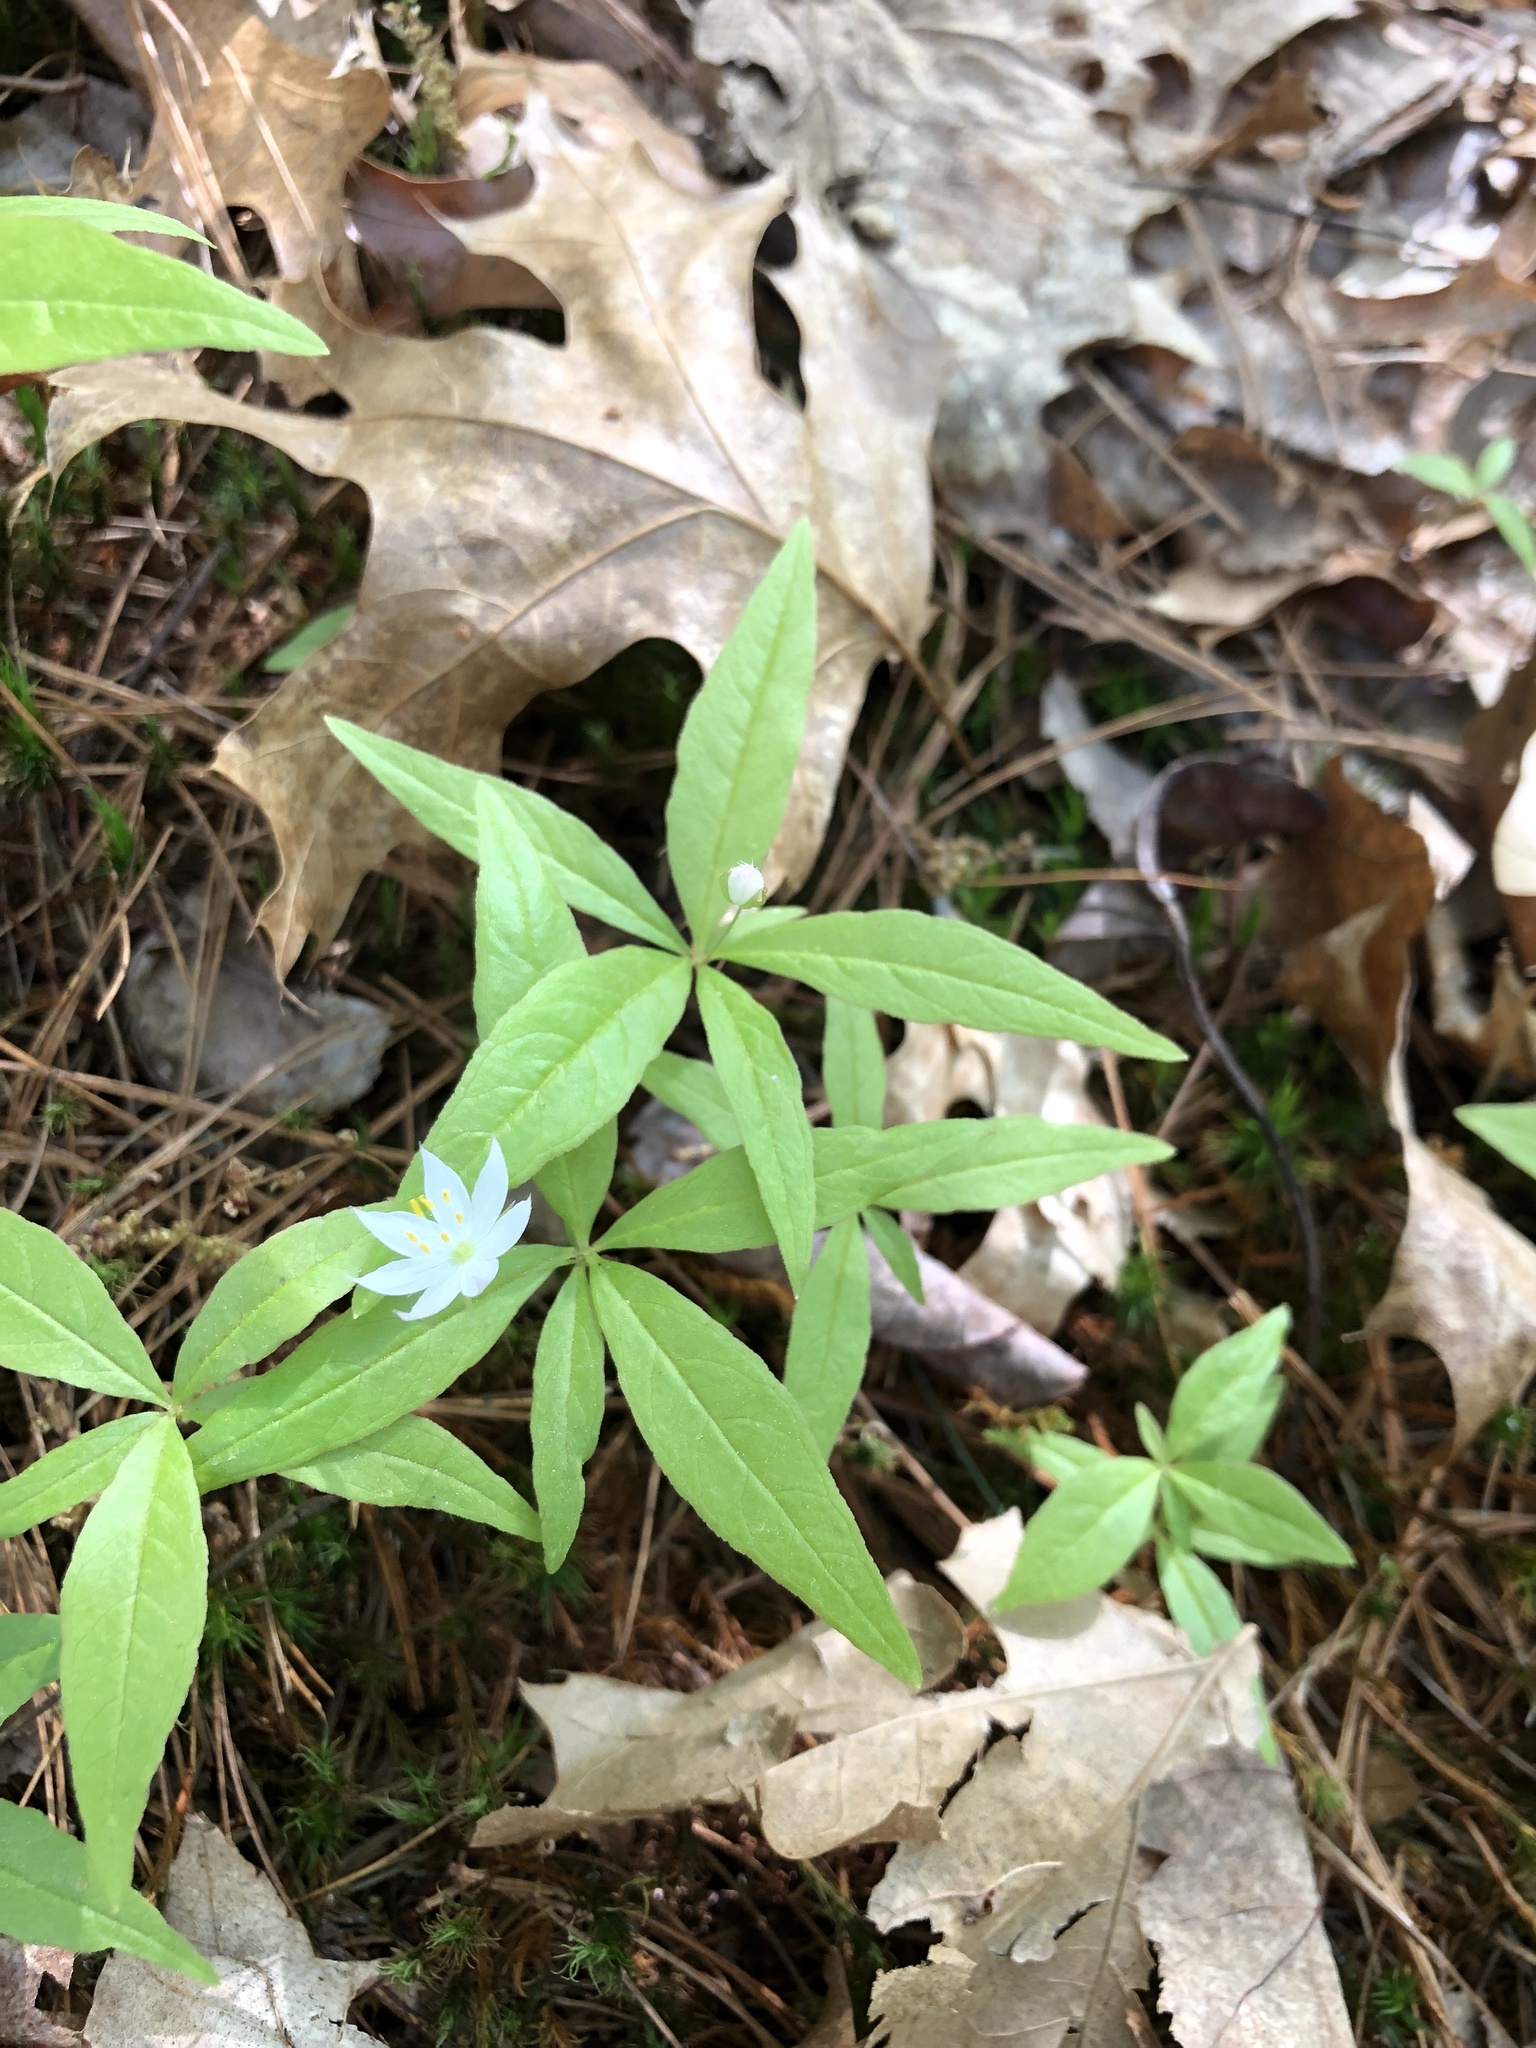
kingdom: Plantae
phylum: Tracheophyta
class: Magnoliopsida
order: Ericales
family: Primulaceae
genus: Lysimachia
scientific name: Lysimachia borealis
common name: American starflower
